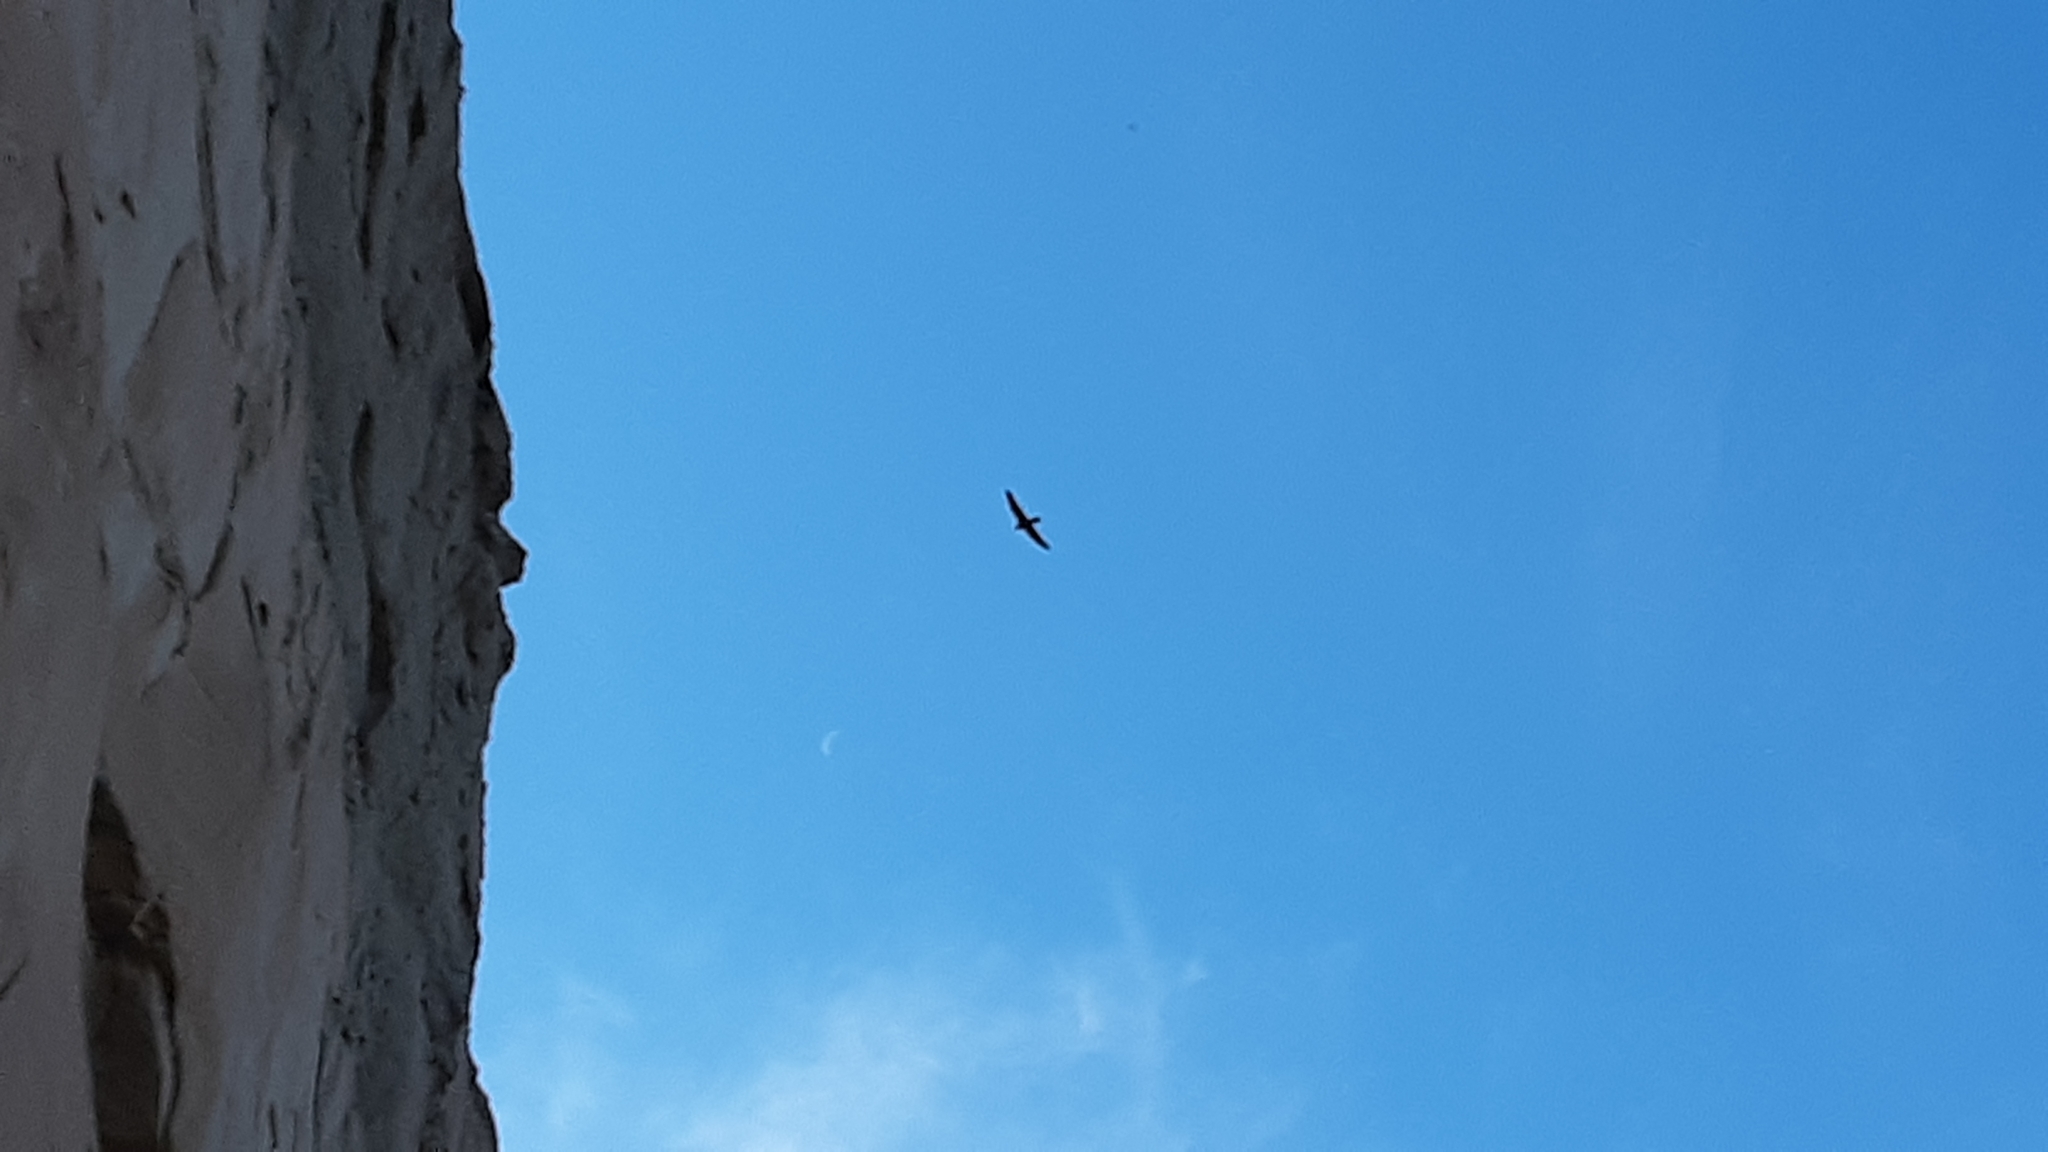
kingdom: Animalia
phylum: Chordata
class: Aves
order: Falconiformes
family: Falconidae
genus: Falco
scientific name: Falco peregrinus
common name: Peregrine falcon
